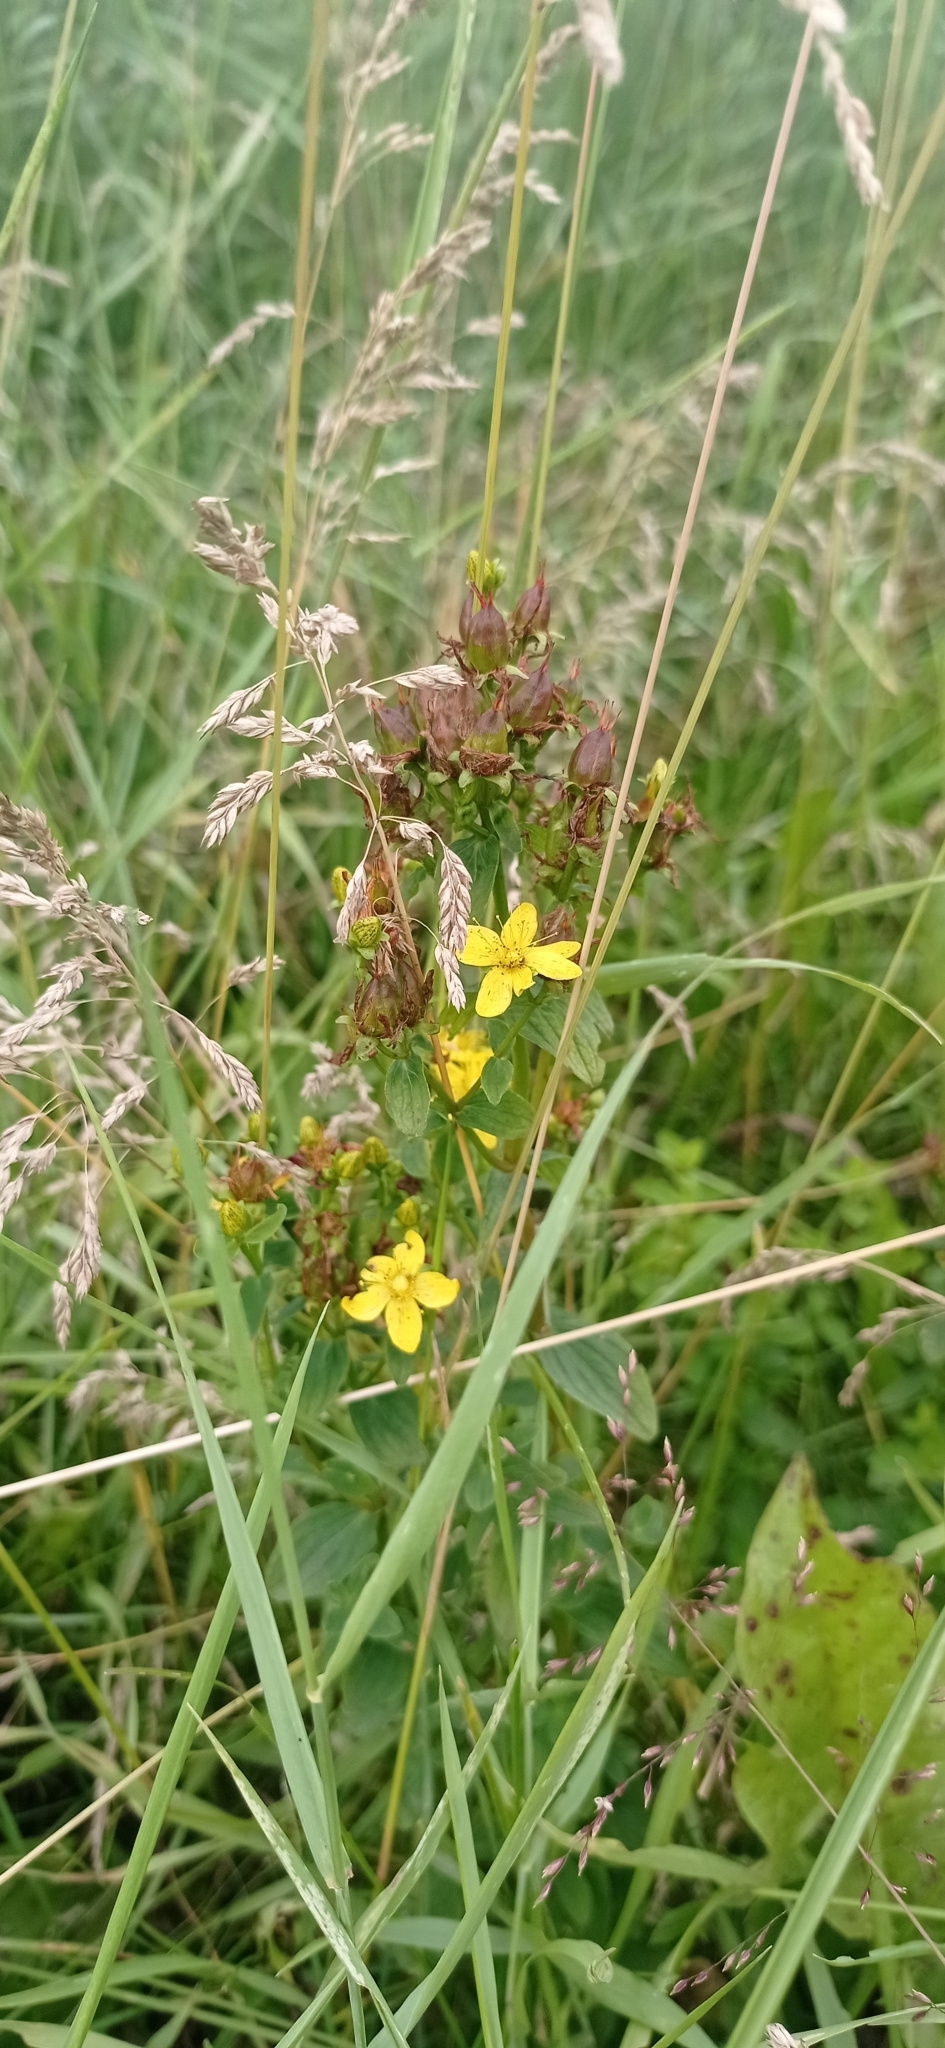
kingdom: Plantae
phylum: Tracheophyta
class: Magnoliopsida
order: Malpighiales
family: Hypericaceae
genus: Hypericum
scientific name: Hypericum maculatum
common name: Imperforate st. john's-wort
